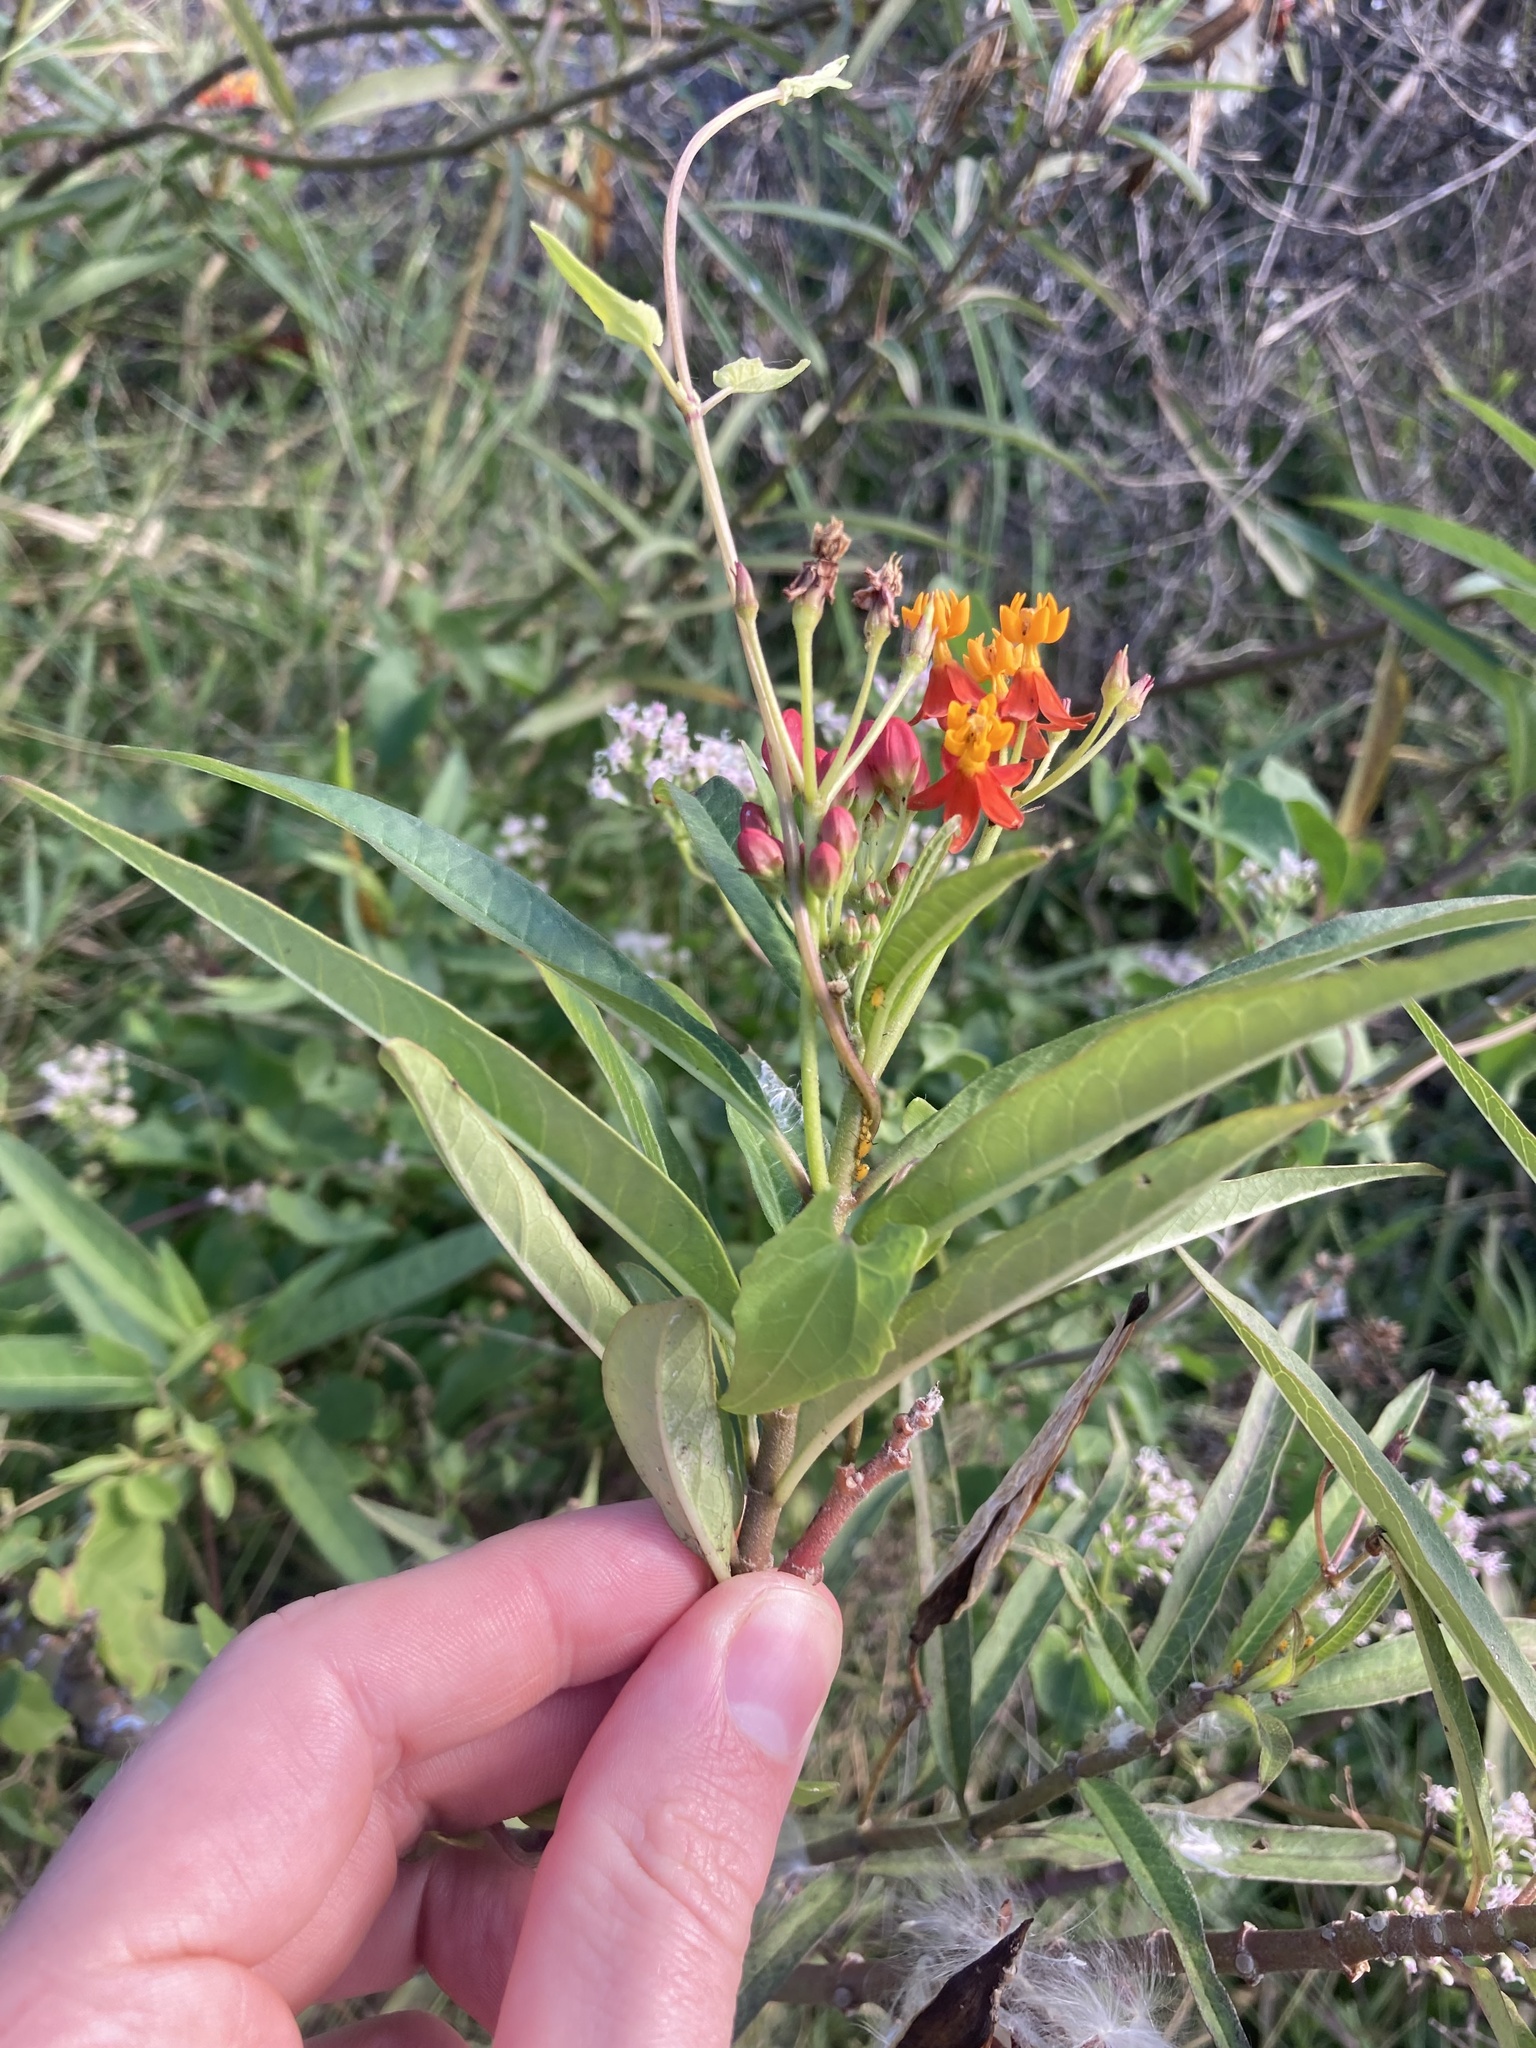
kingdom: Plantae
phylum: Tracheophyta
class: Magnoliopsida
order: Gentianales
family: Apocynaceae
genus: Asclepias
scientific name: Asclepias curassavica
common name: Bloodflower
